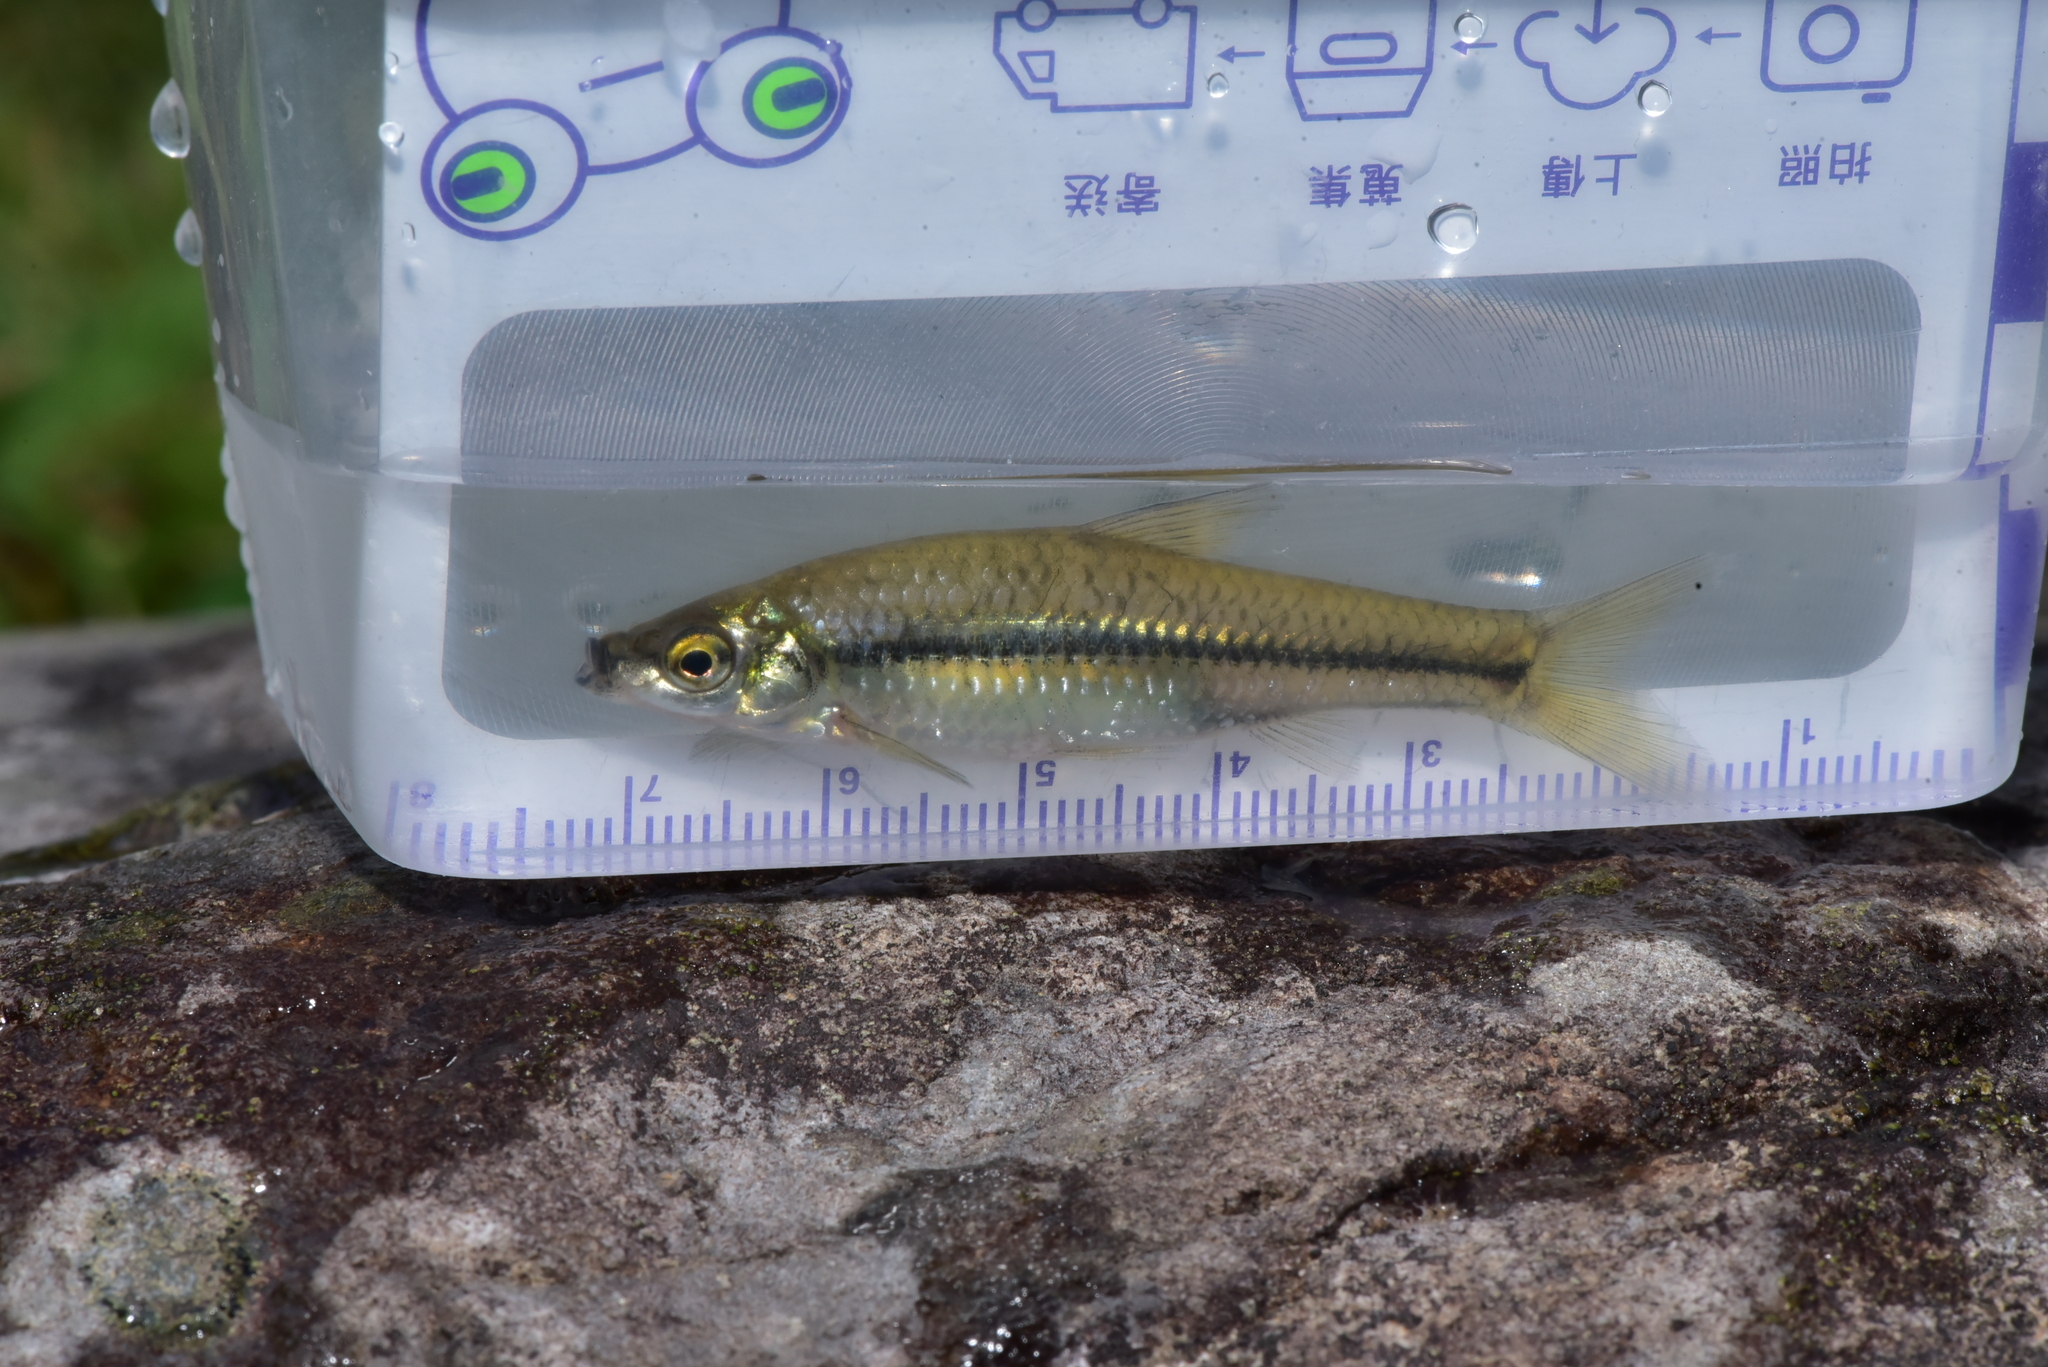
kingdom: Animalia
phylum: Chordata
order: Cypriniformes
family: Cyprinidae
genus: Pseudorasbora
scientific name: Pseudorasbora parva
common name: Topmouth gudgeon
